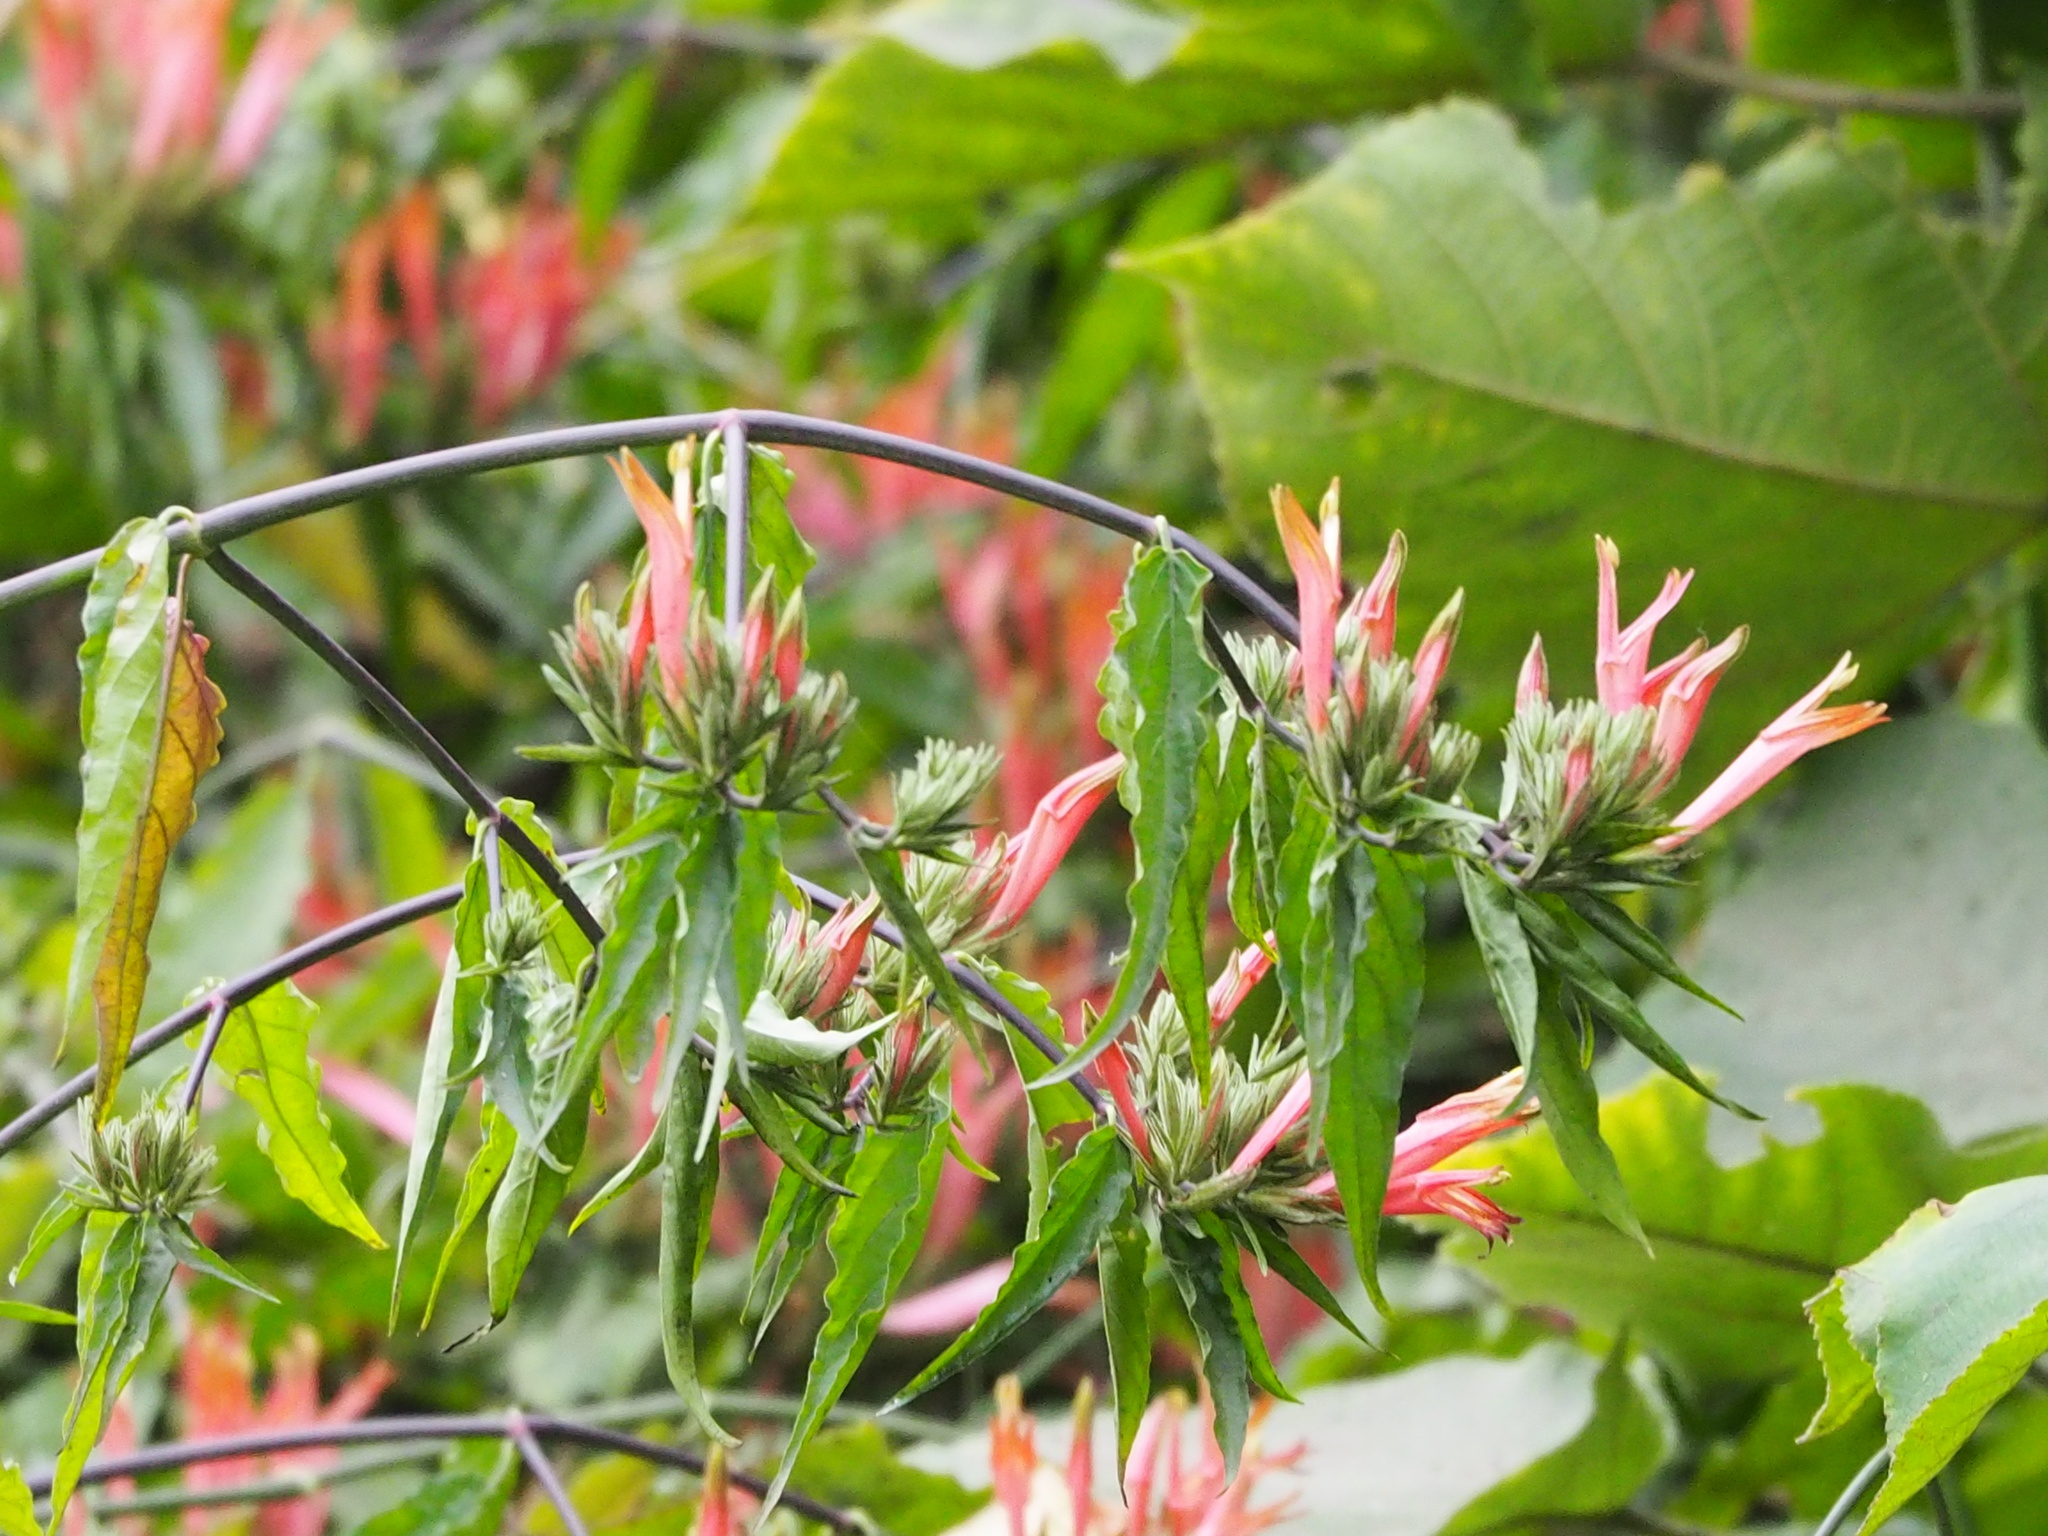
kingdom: Plantae
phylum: Tracheophyta
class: Magnoliopsida
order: Lamiales
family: Acanthaceae
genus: Clinacanthus
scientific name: Clinacanthus nutans
